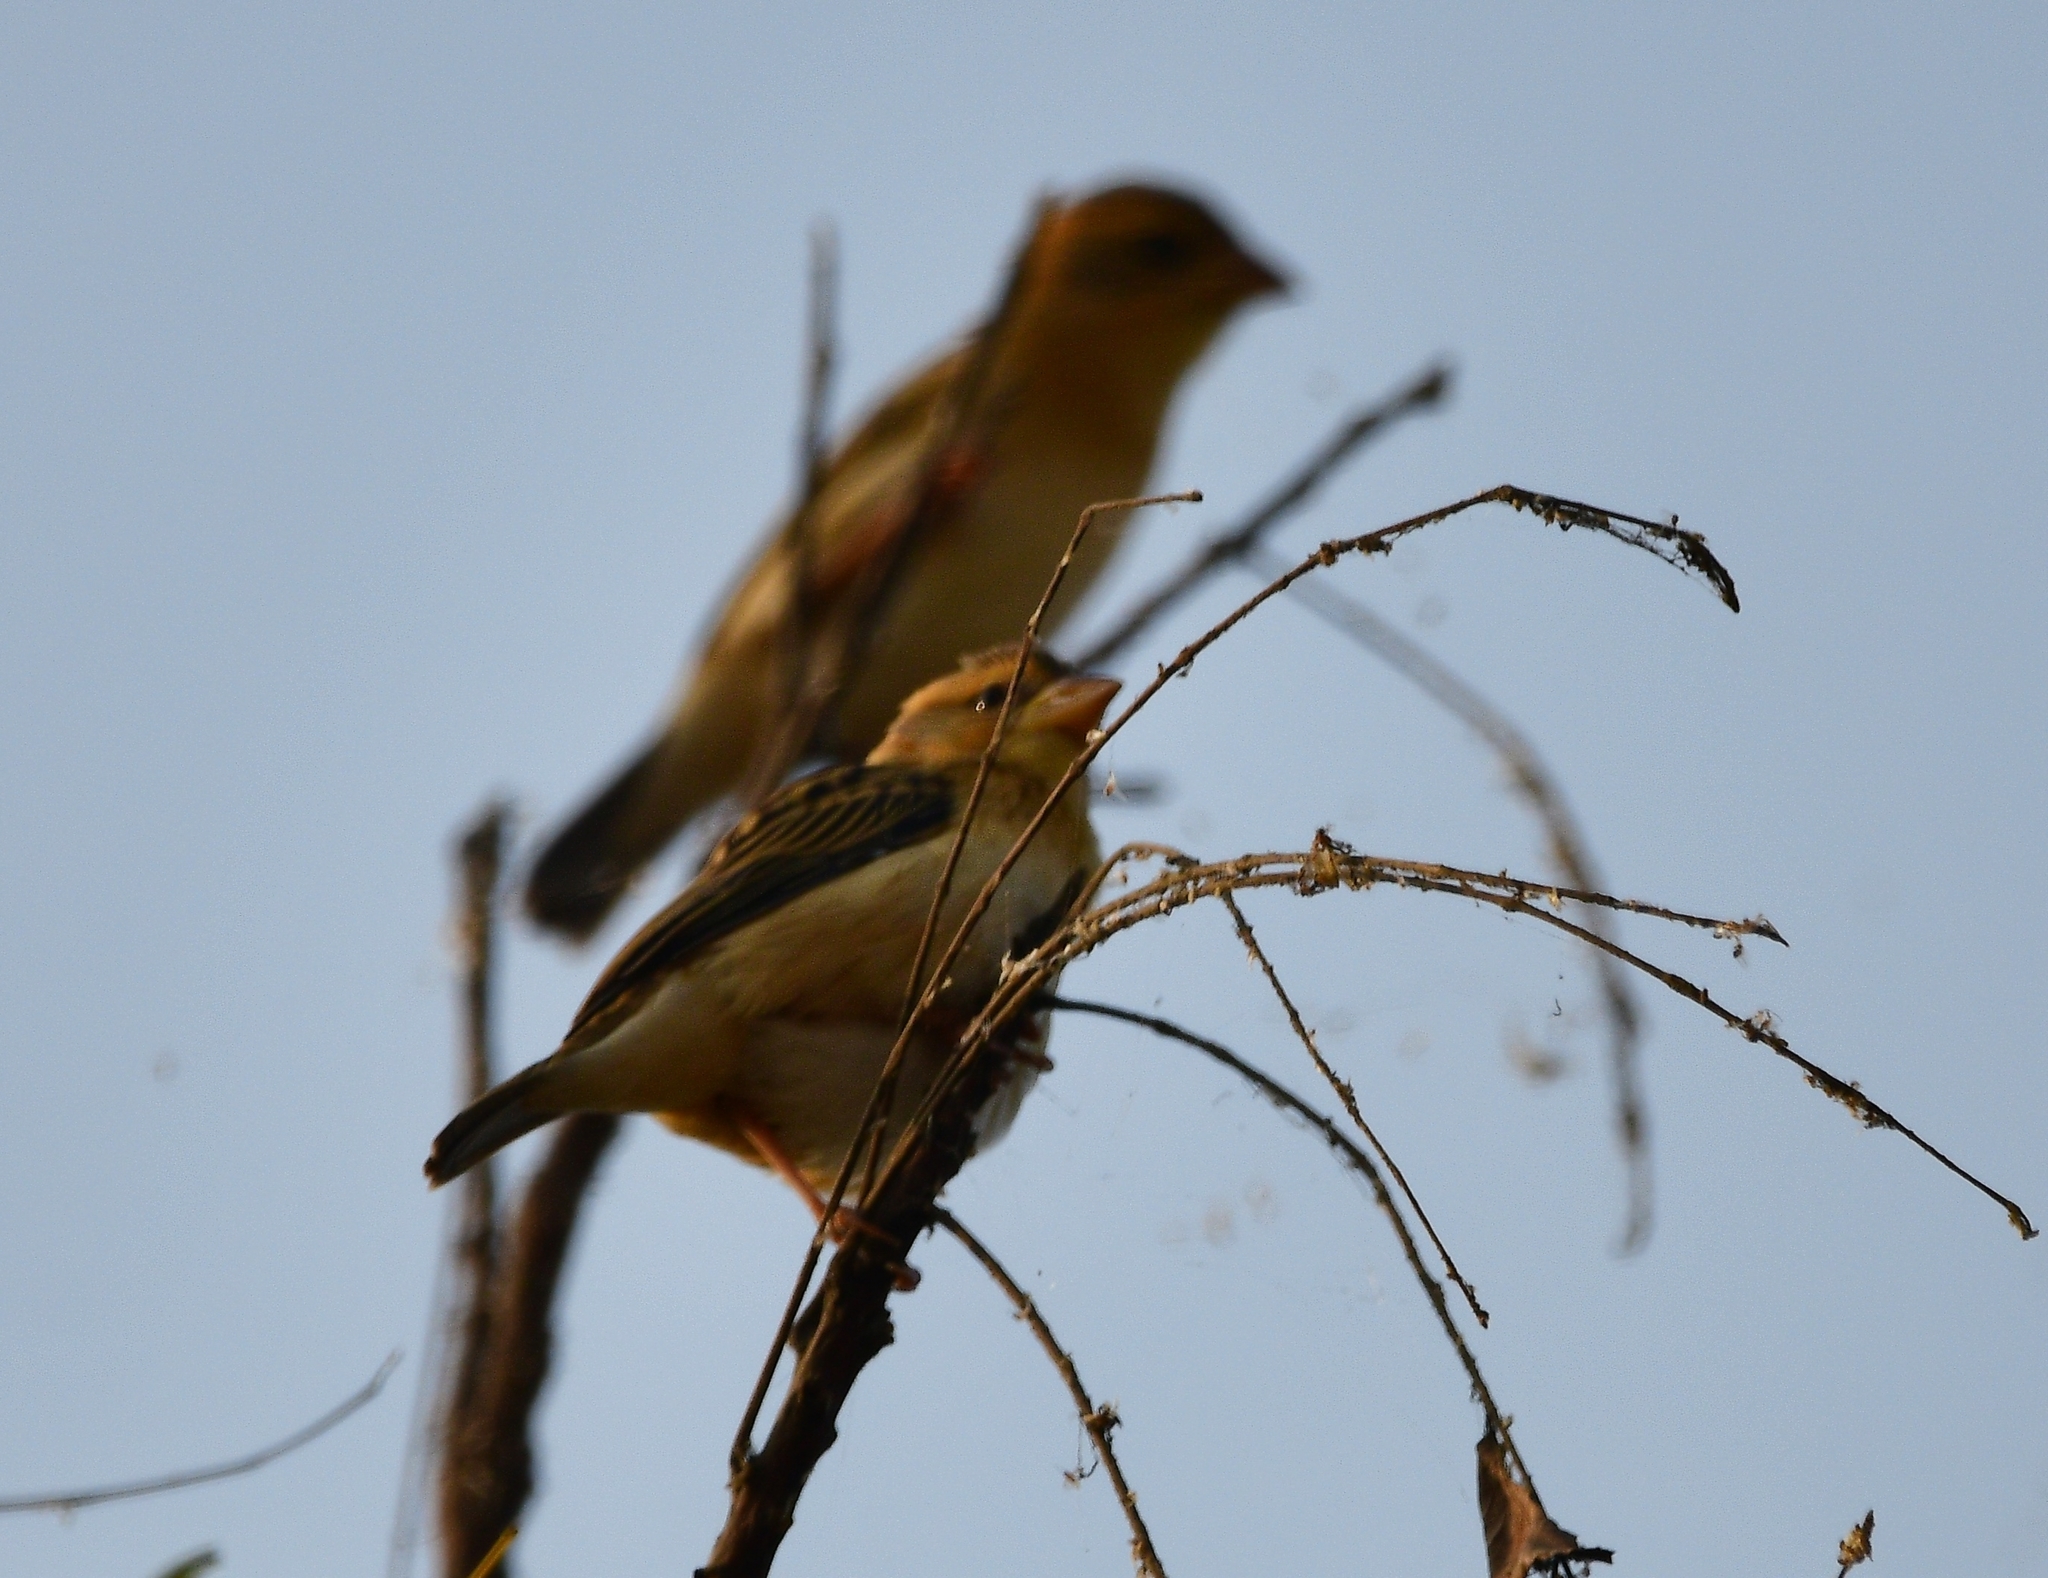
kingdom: Animalia
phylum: Chordata
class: Aves
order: Passeriformes
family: Ploceidae
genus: Ploceus
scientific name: Ploceus philippinus
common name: Baya weaver
